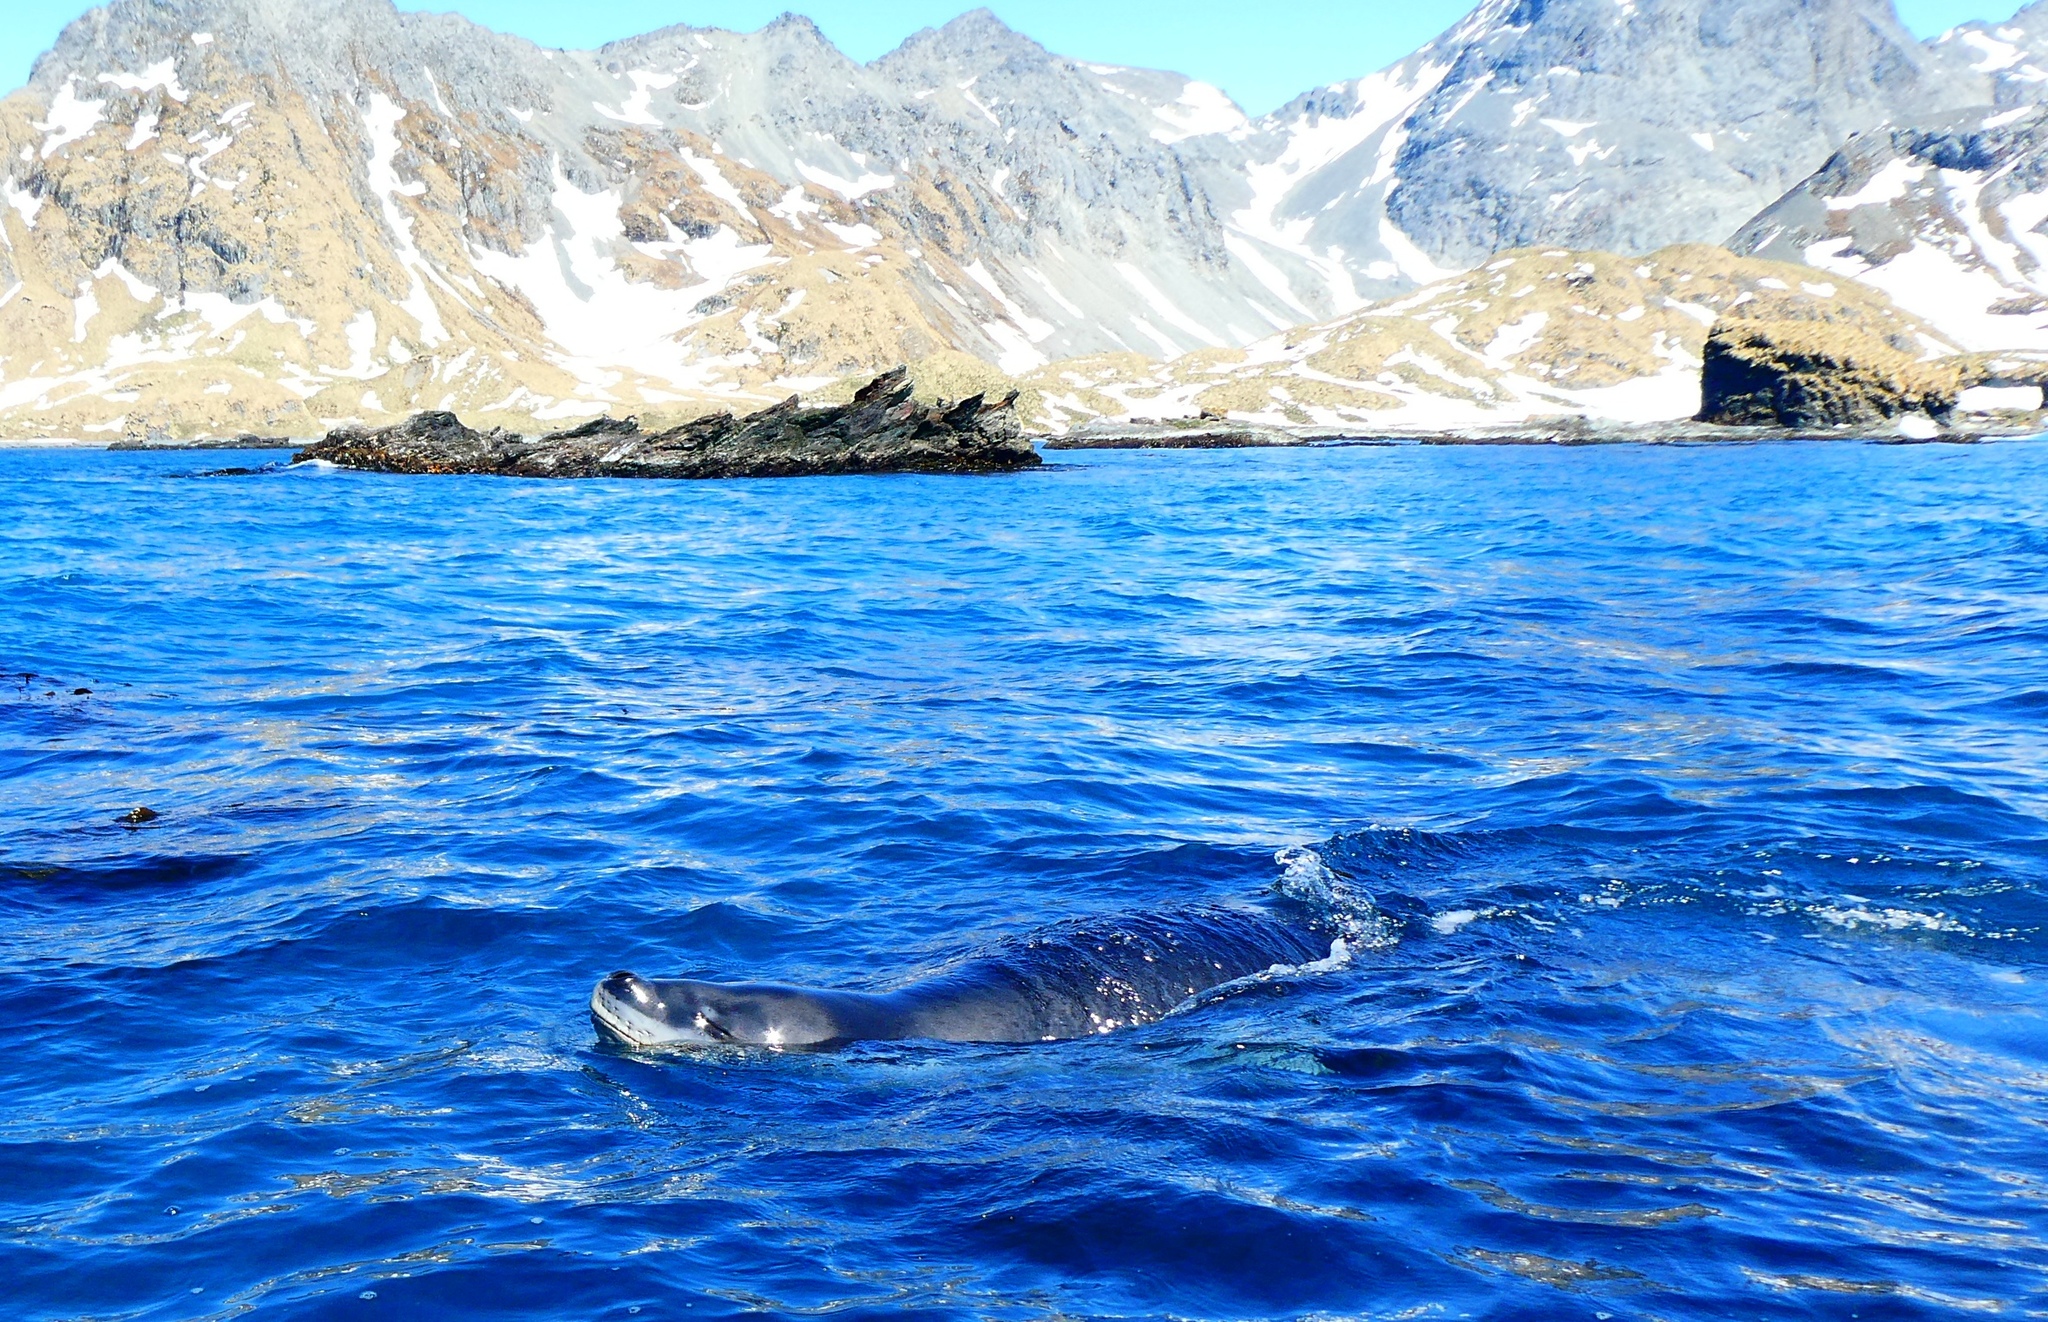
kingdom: Animalia
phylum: Chordata
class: Mammalia
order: Carnivora
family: Phocidae
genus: Hydrurga
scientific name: Hydrurga leptonyx
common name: Leopard seal
